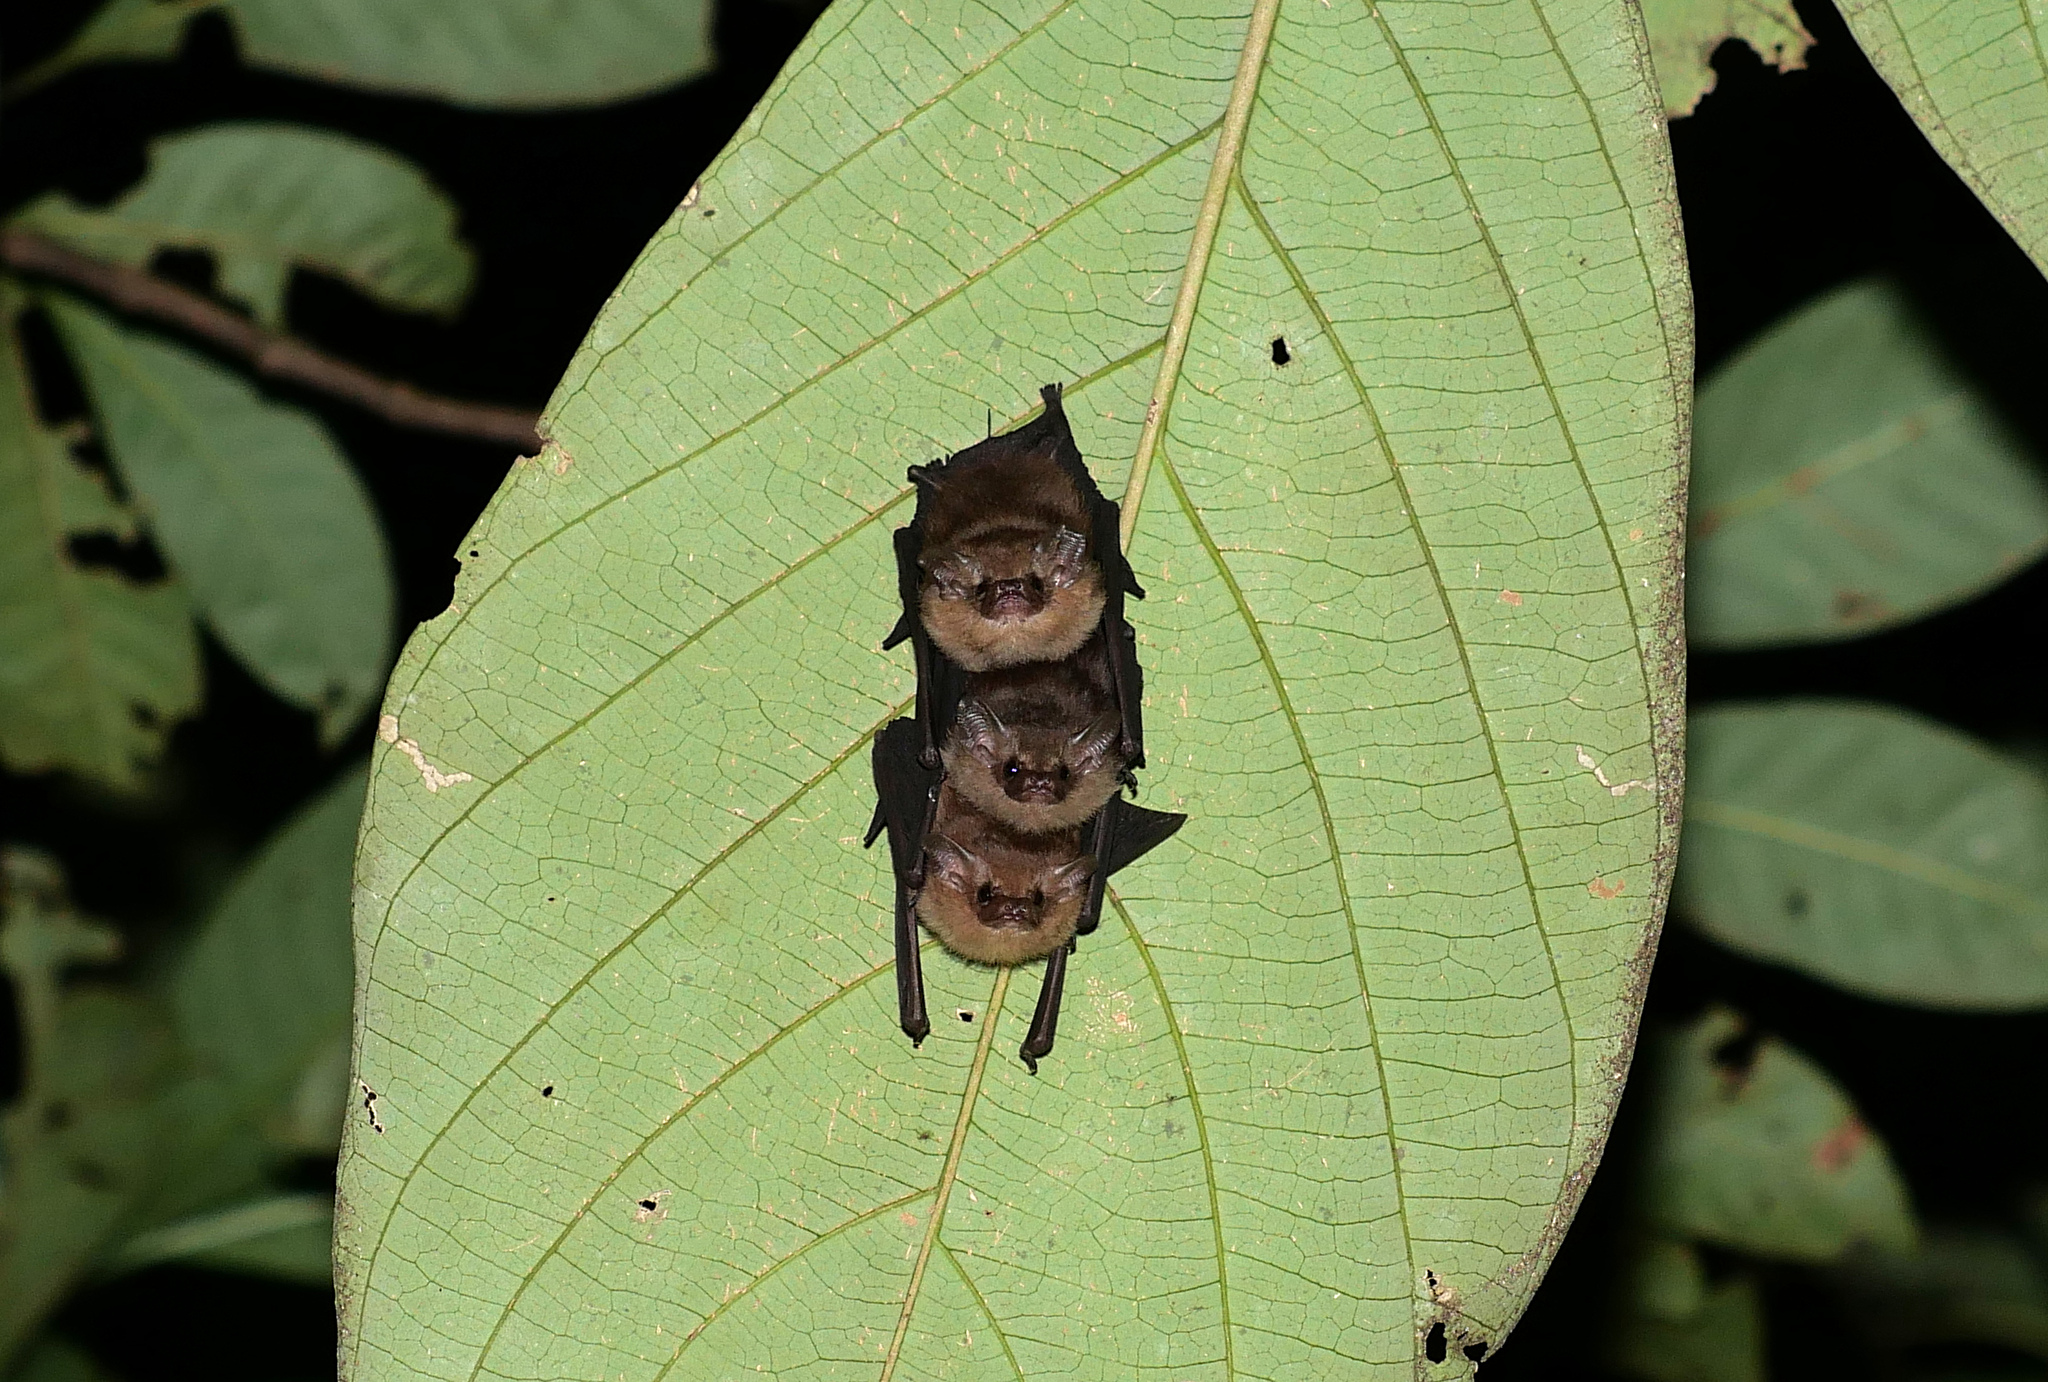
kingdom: Animalia
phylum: Chordata
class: Mammalia
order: Chiroptera
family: Emballonuridae
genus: Mosia
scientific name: Mosia nigrescens
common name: Dark sheath-tailed bat
